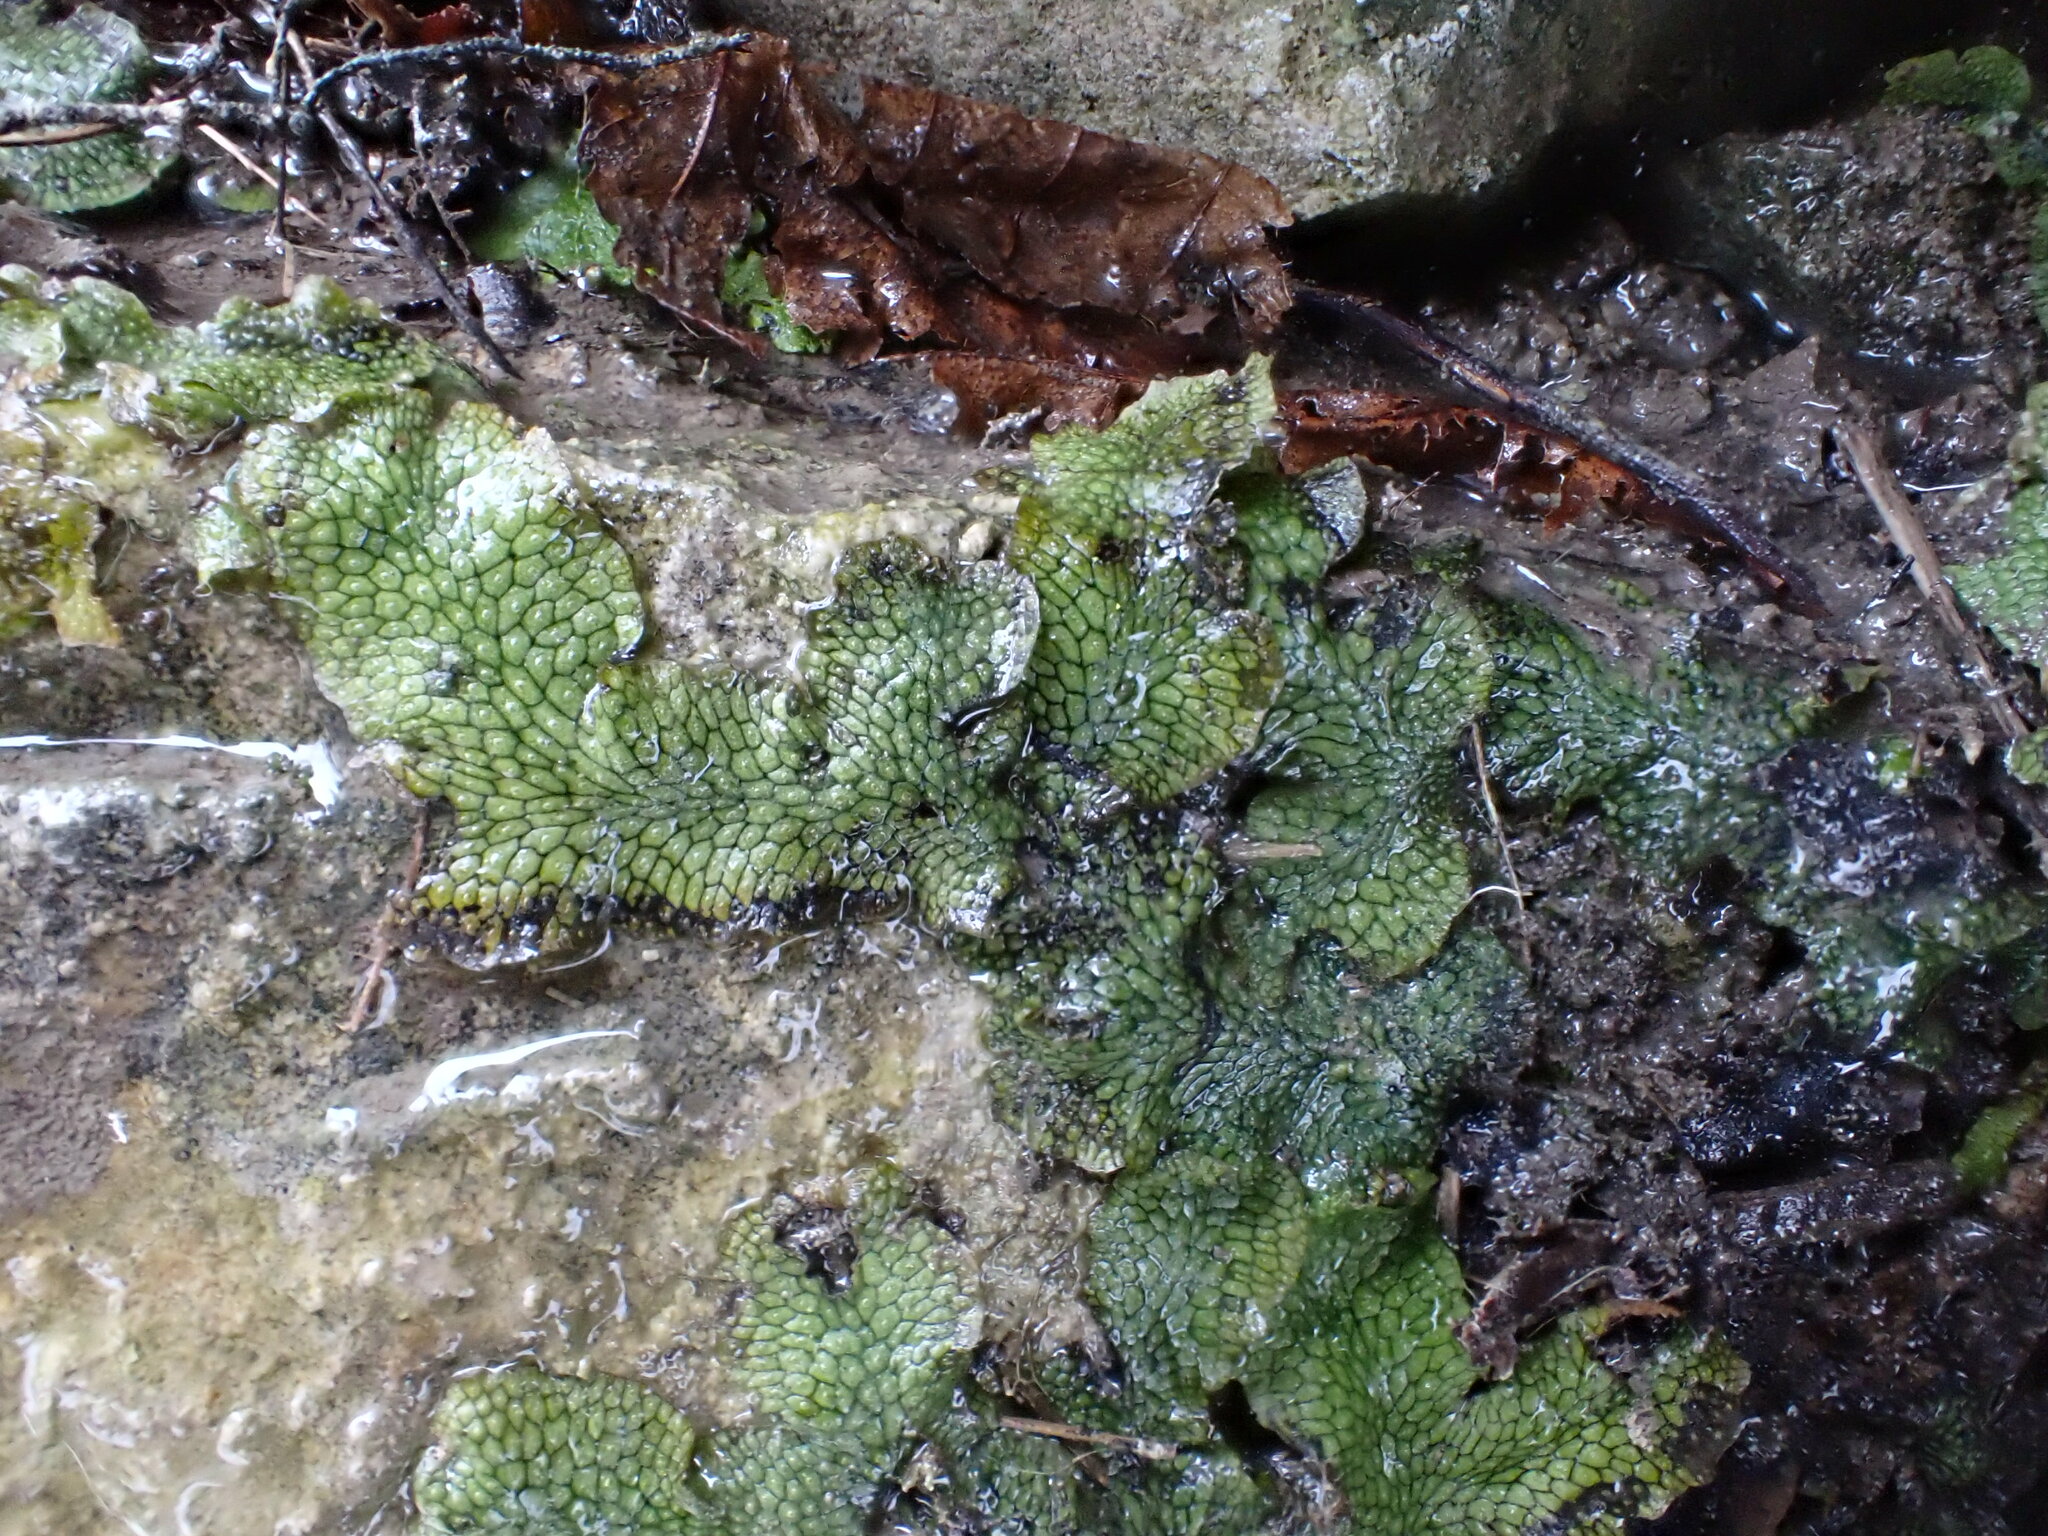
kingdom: Plantae
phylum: Marchantiophyta
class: Marchantiopsida
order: Marchantiales
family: Conocephalaceae
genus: Conocephalum
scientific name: Conocephalum salebrosum
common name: Cat-tongue liverwort
